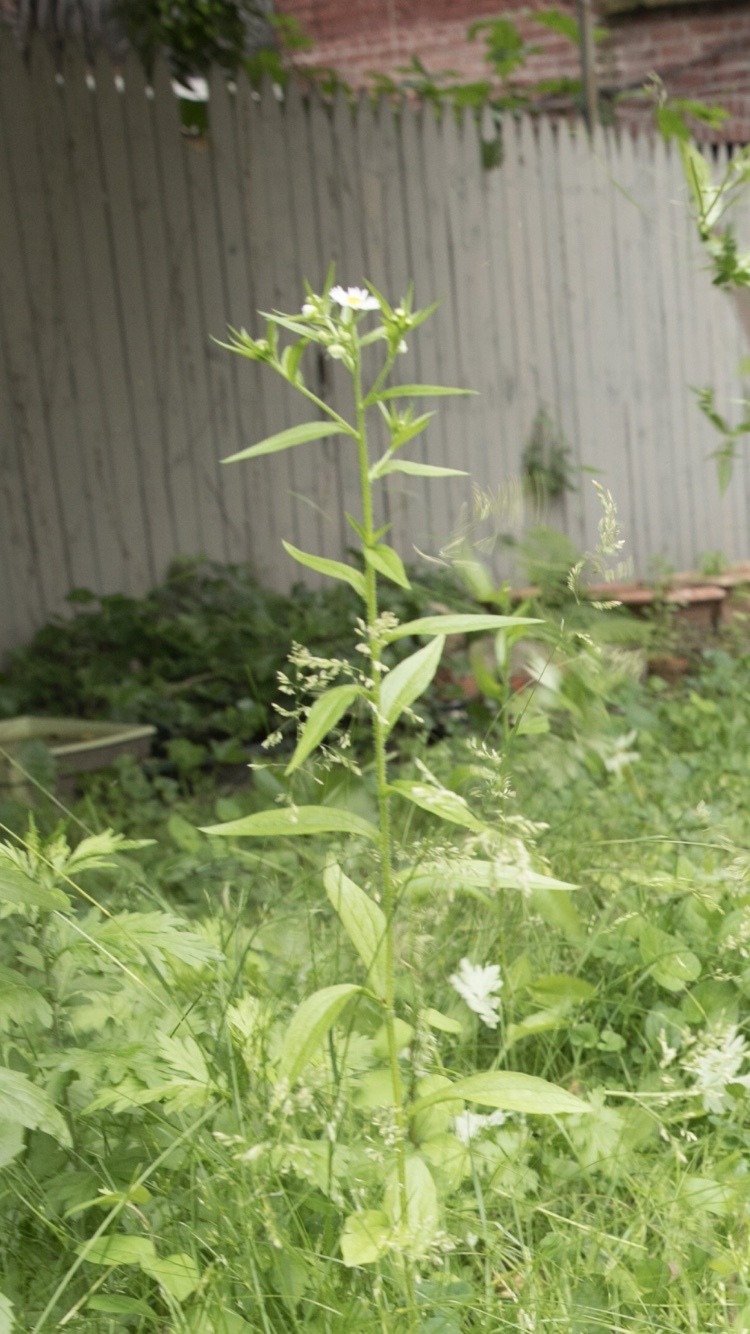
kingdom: Plantae
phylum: Tracheophyta
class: Magnoliopsida
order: Asterales
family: Asteraceae
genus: Erigeron
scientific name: Erigeron annuus
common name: Tall fleabane
